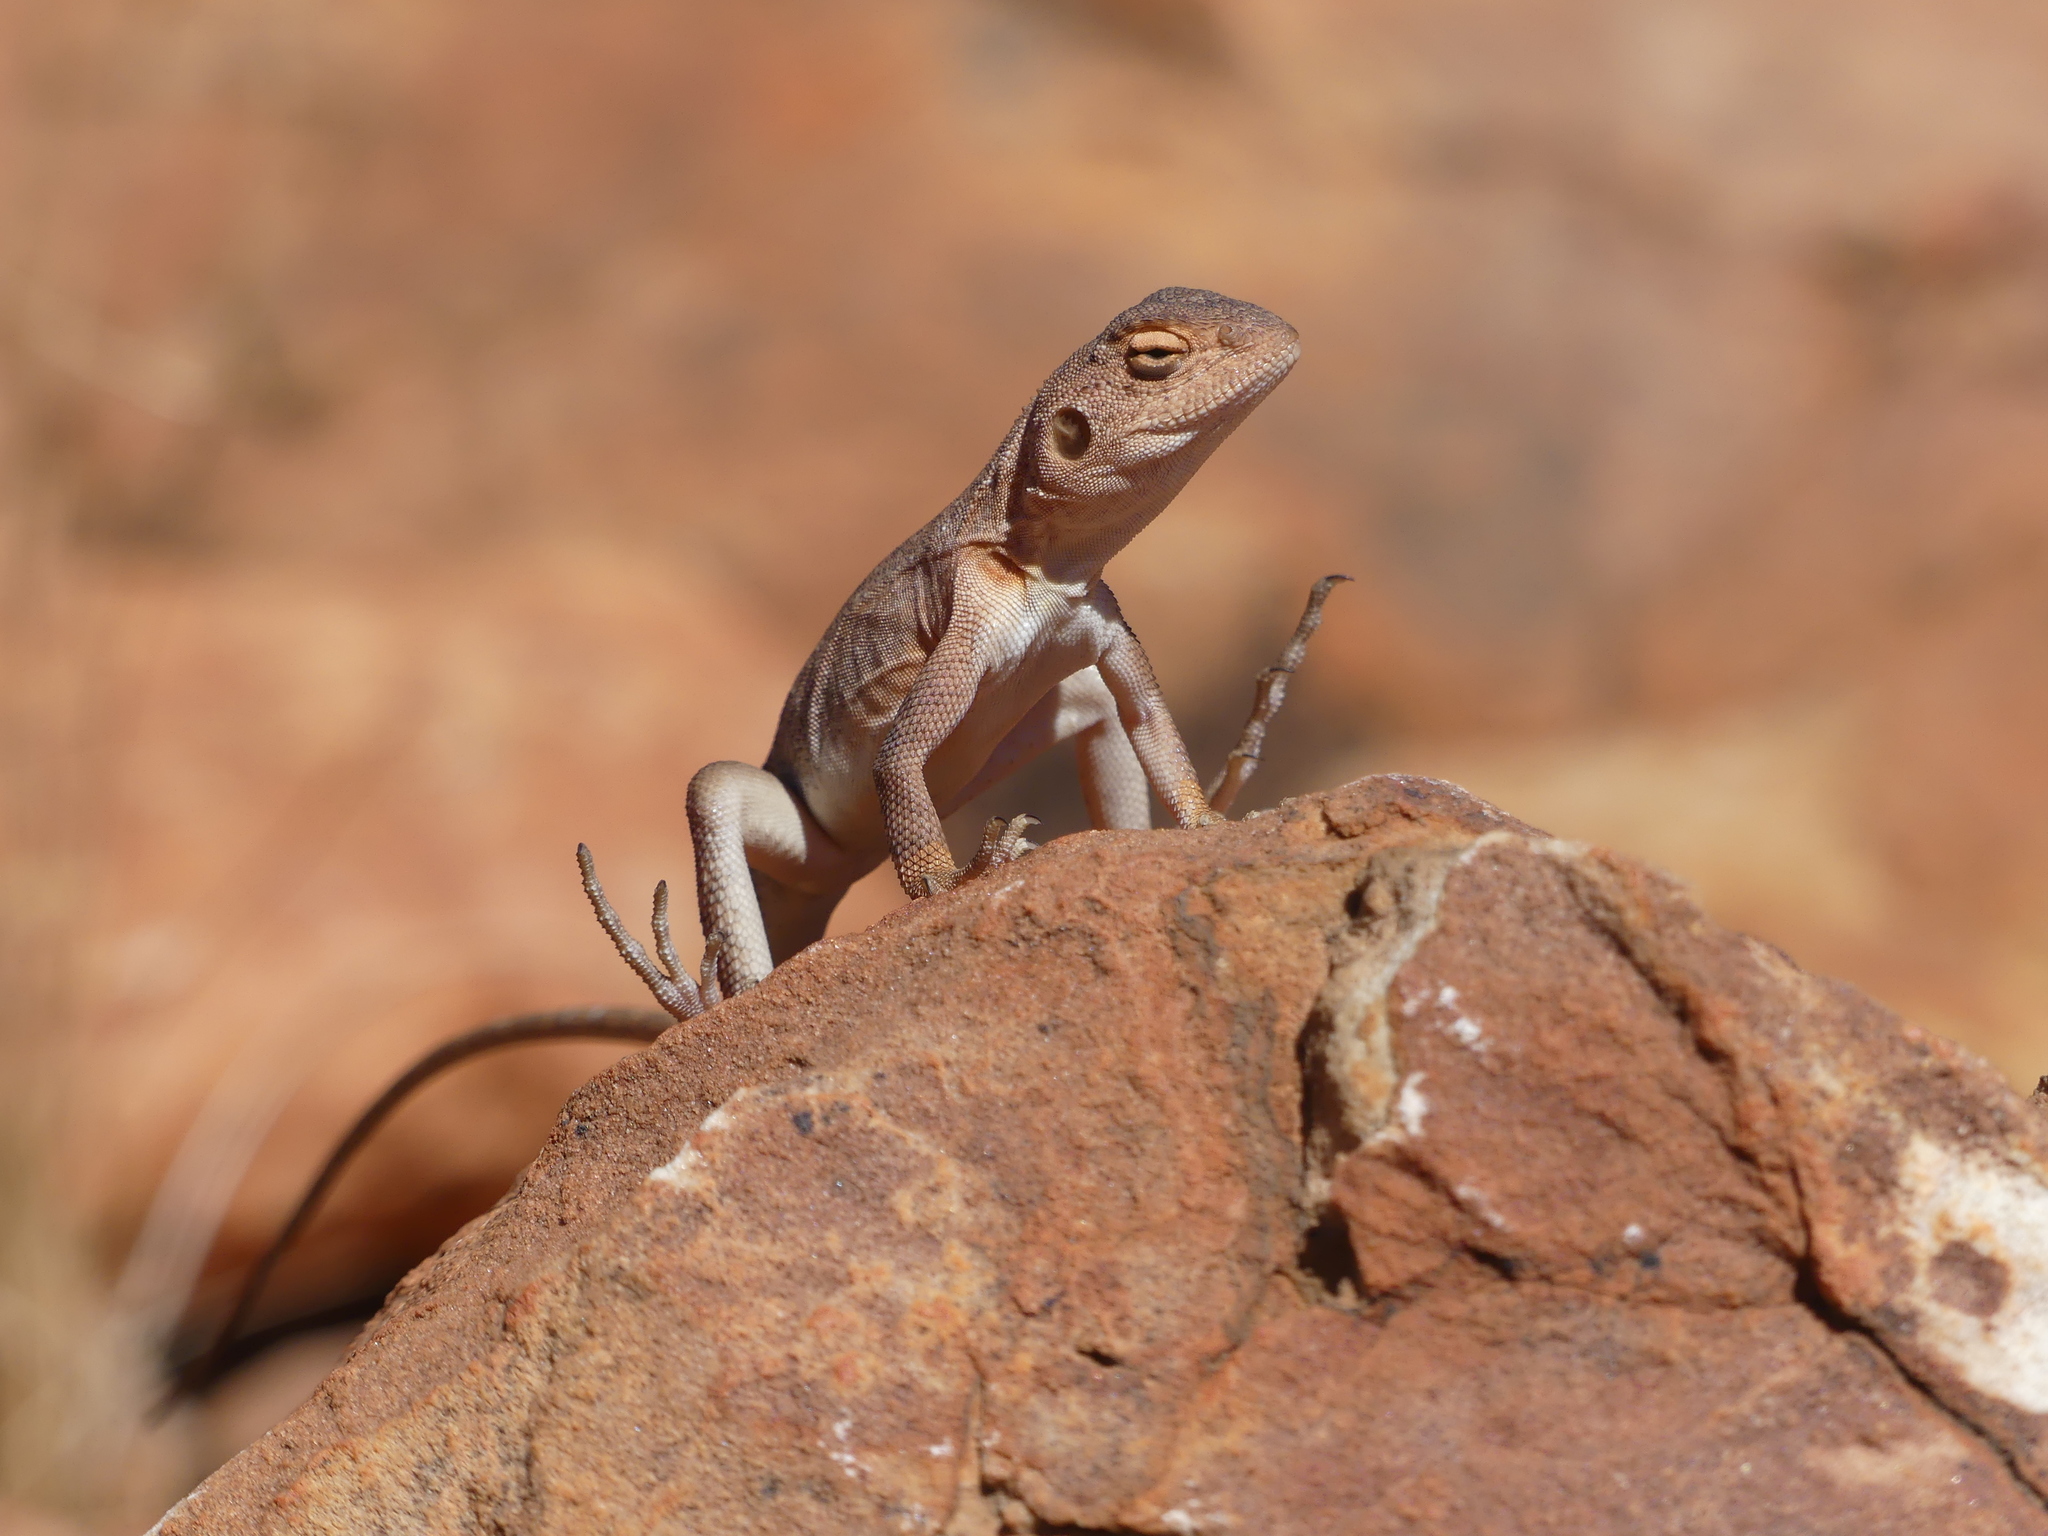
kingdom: Animalia
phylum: Chordata
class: Squamata
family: Agamidae
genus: Ctenophorus
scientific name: Ctenophorus slateri
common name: Slater’s dragon
